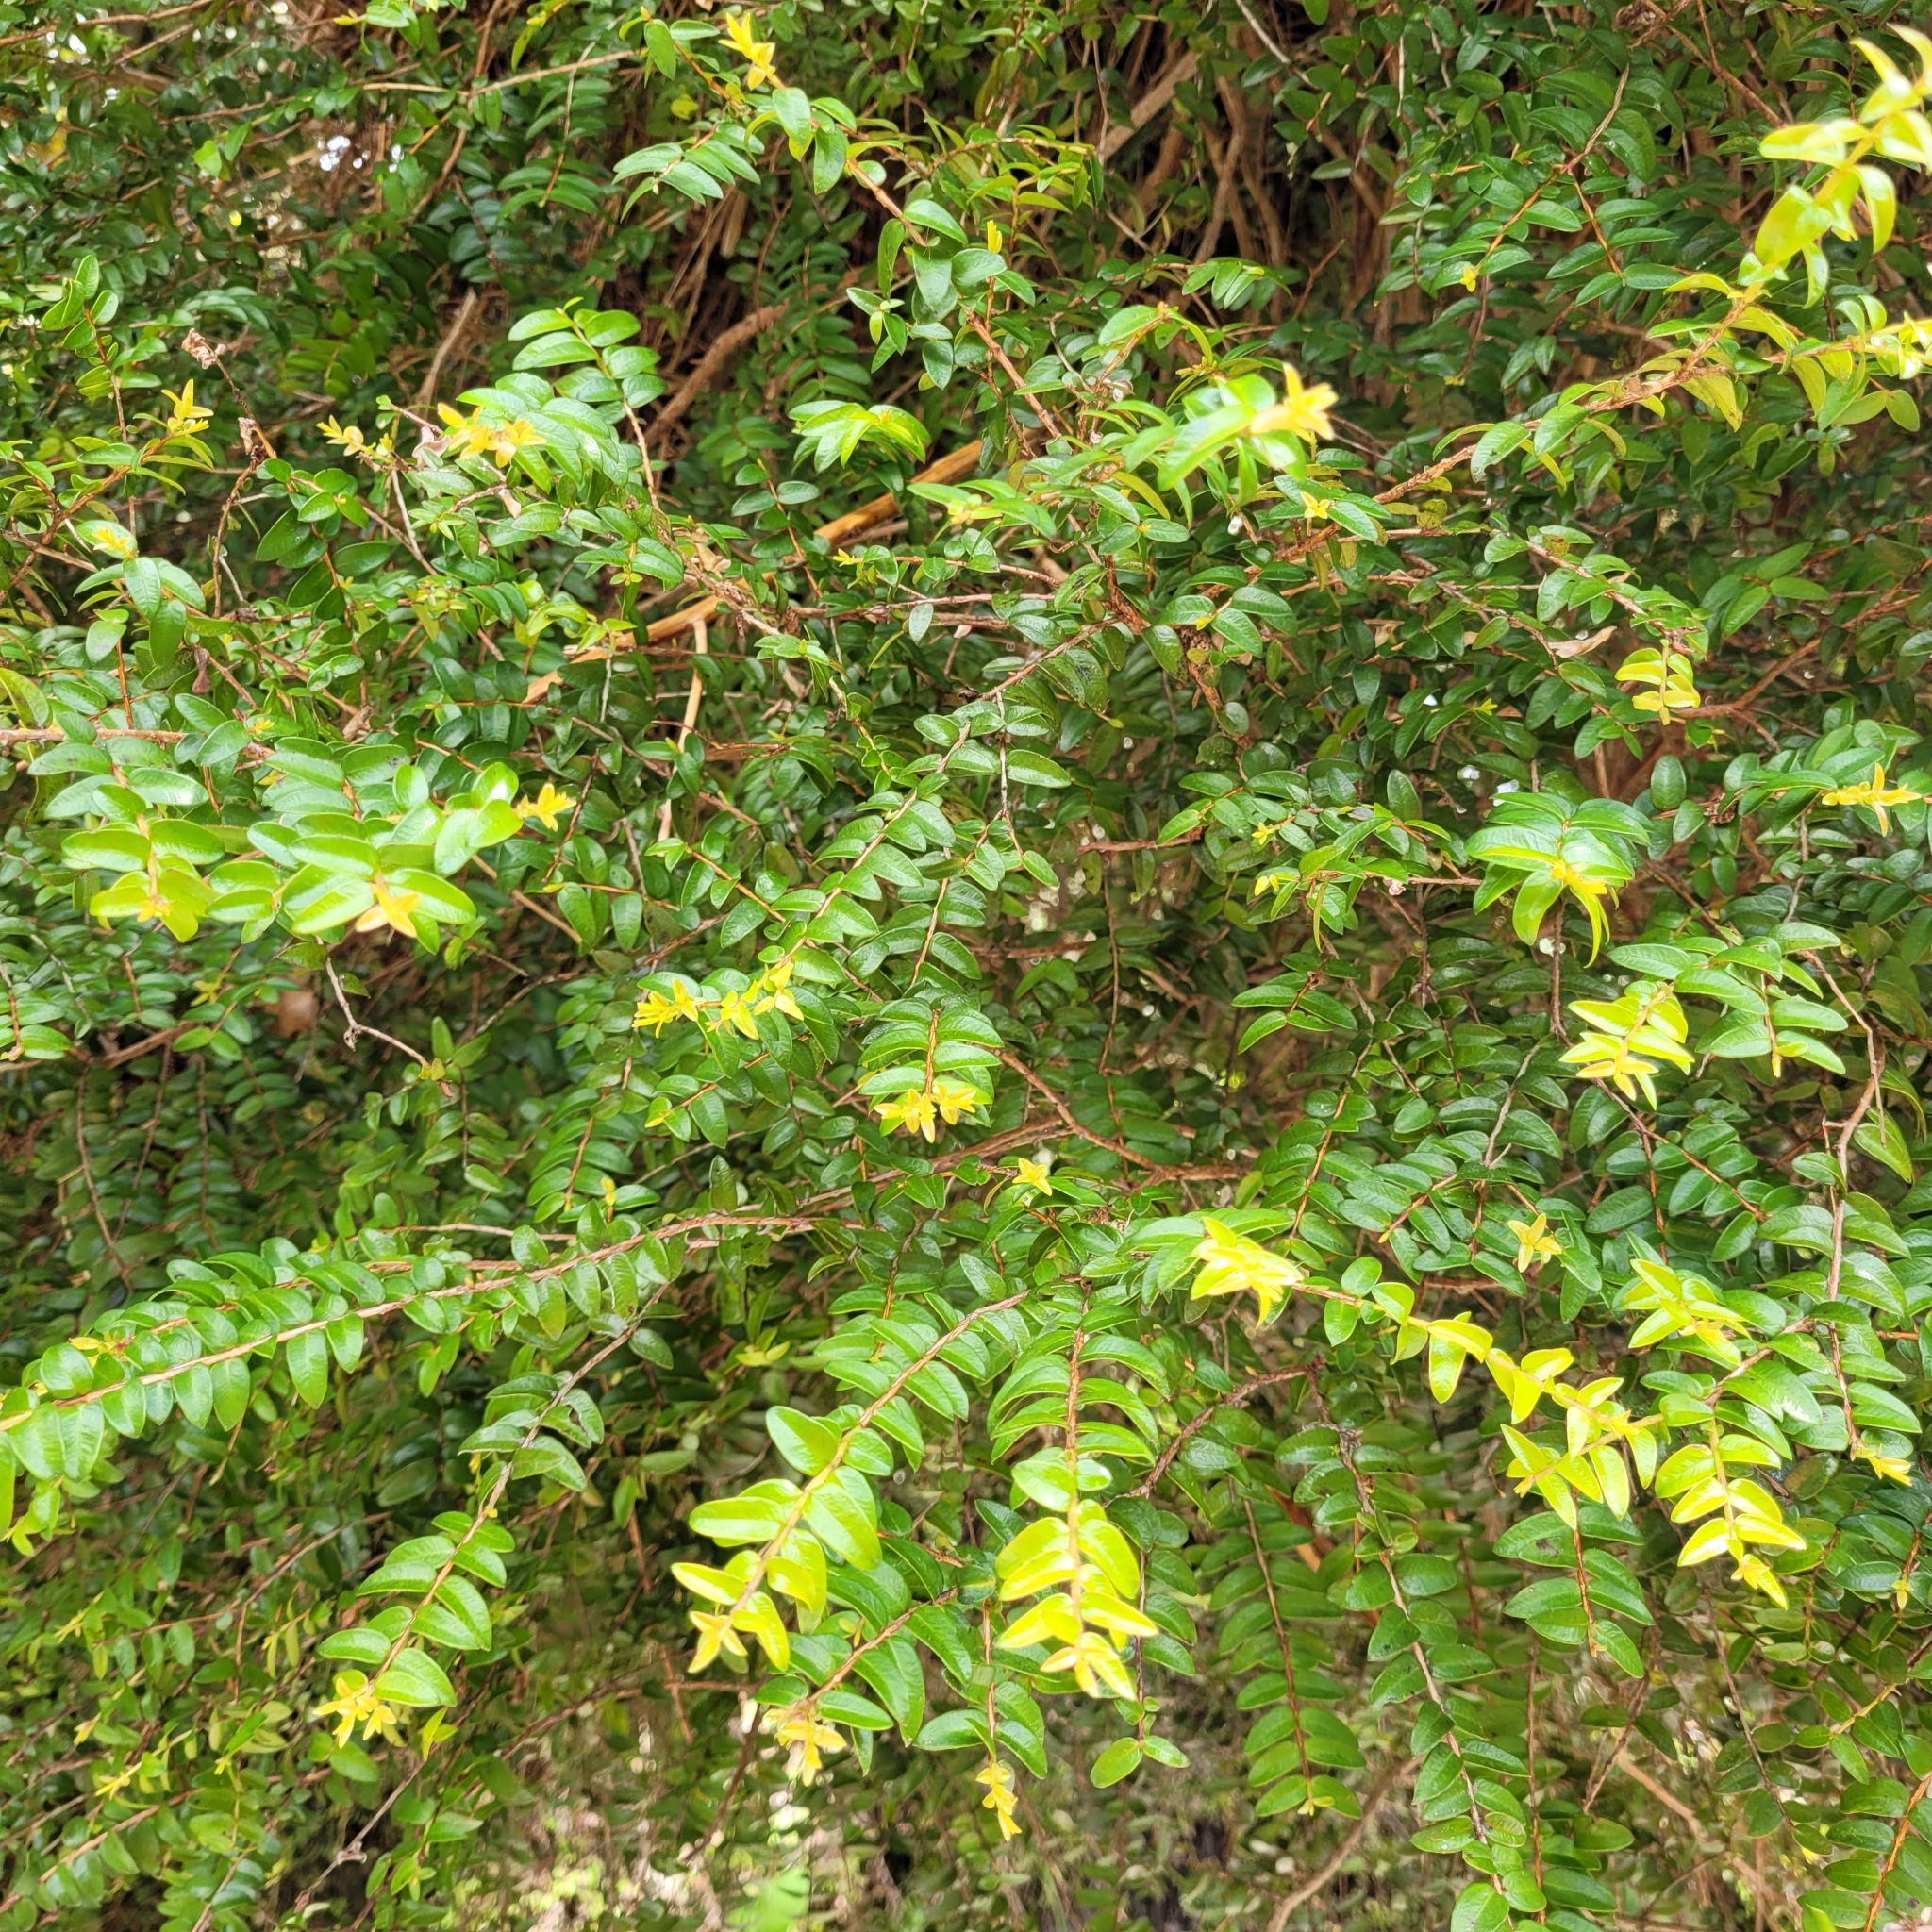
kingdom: Plantae
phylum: Tracheophyta
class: Magnoliopsida
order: Myrtales
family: Myrtaceae
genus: Metrosideros
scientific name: Metrosideros diffusa
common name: Small ratavine
